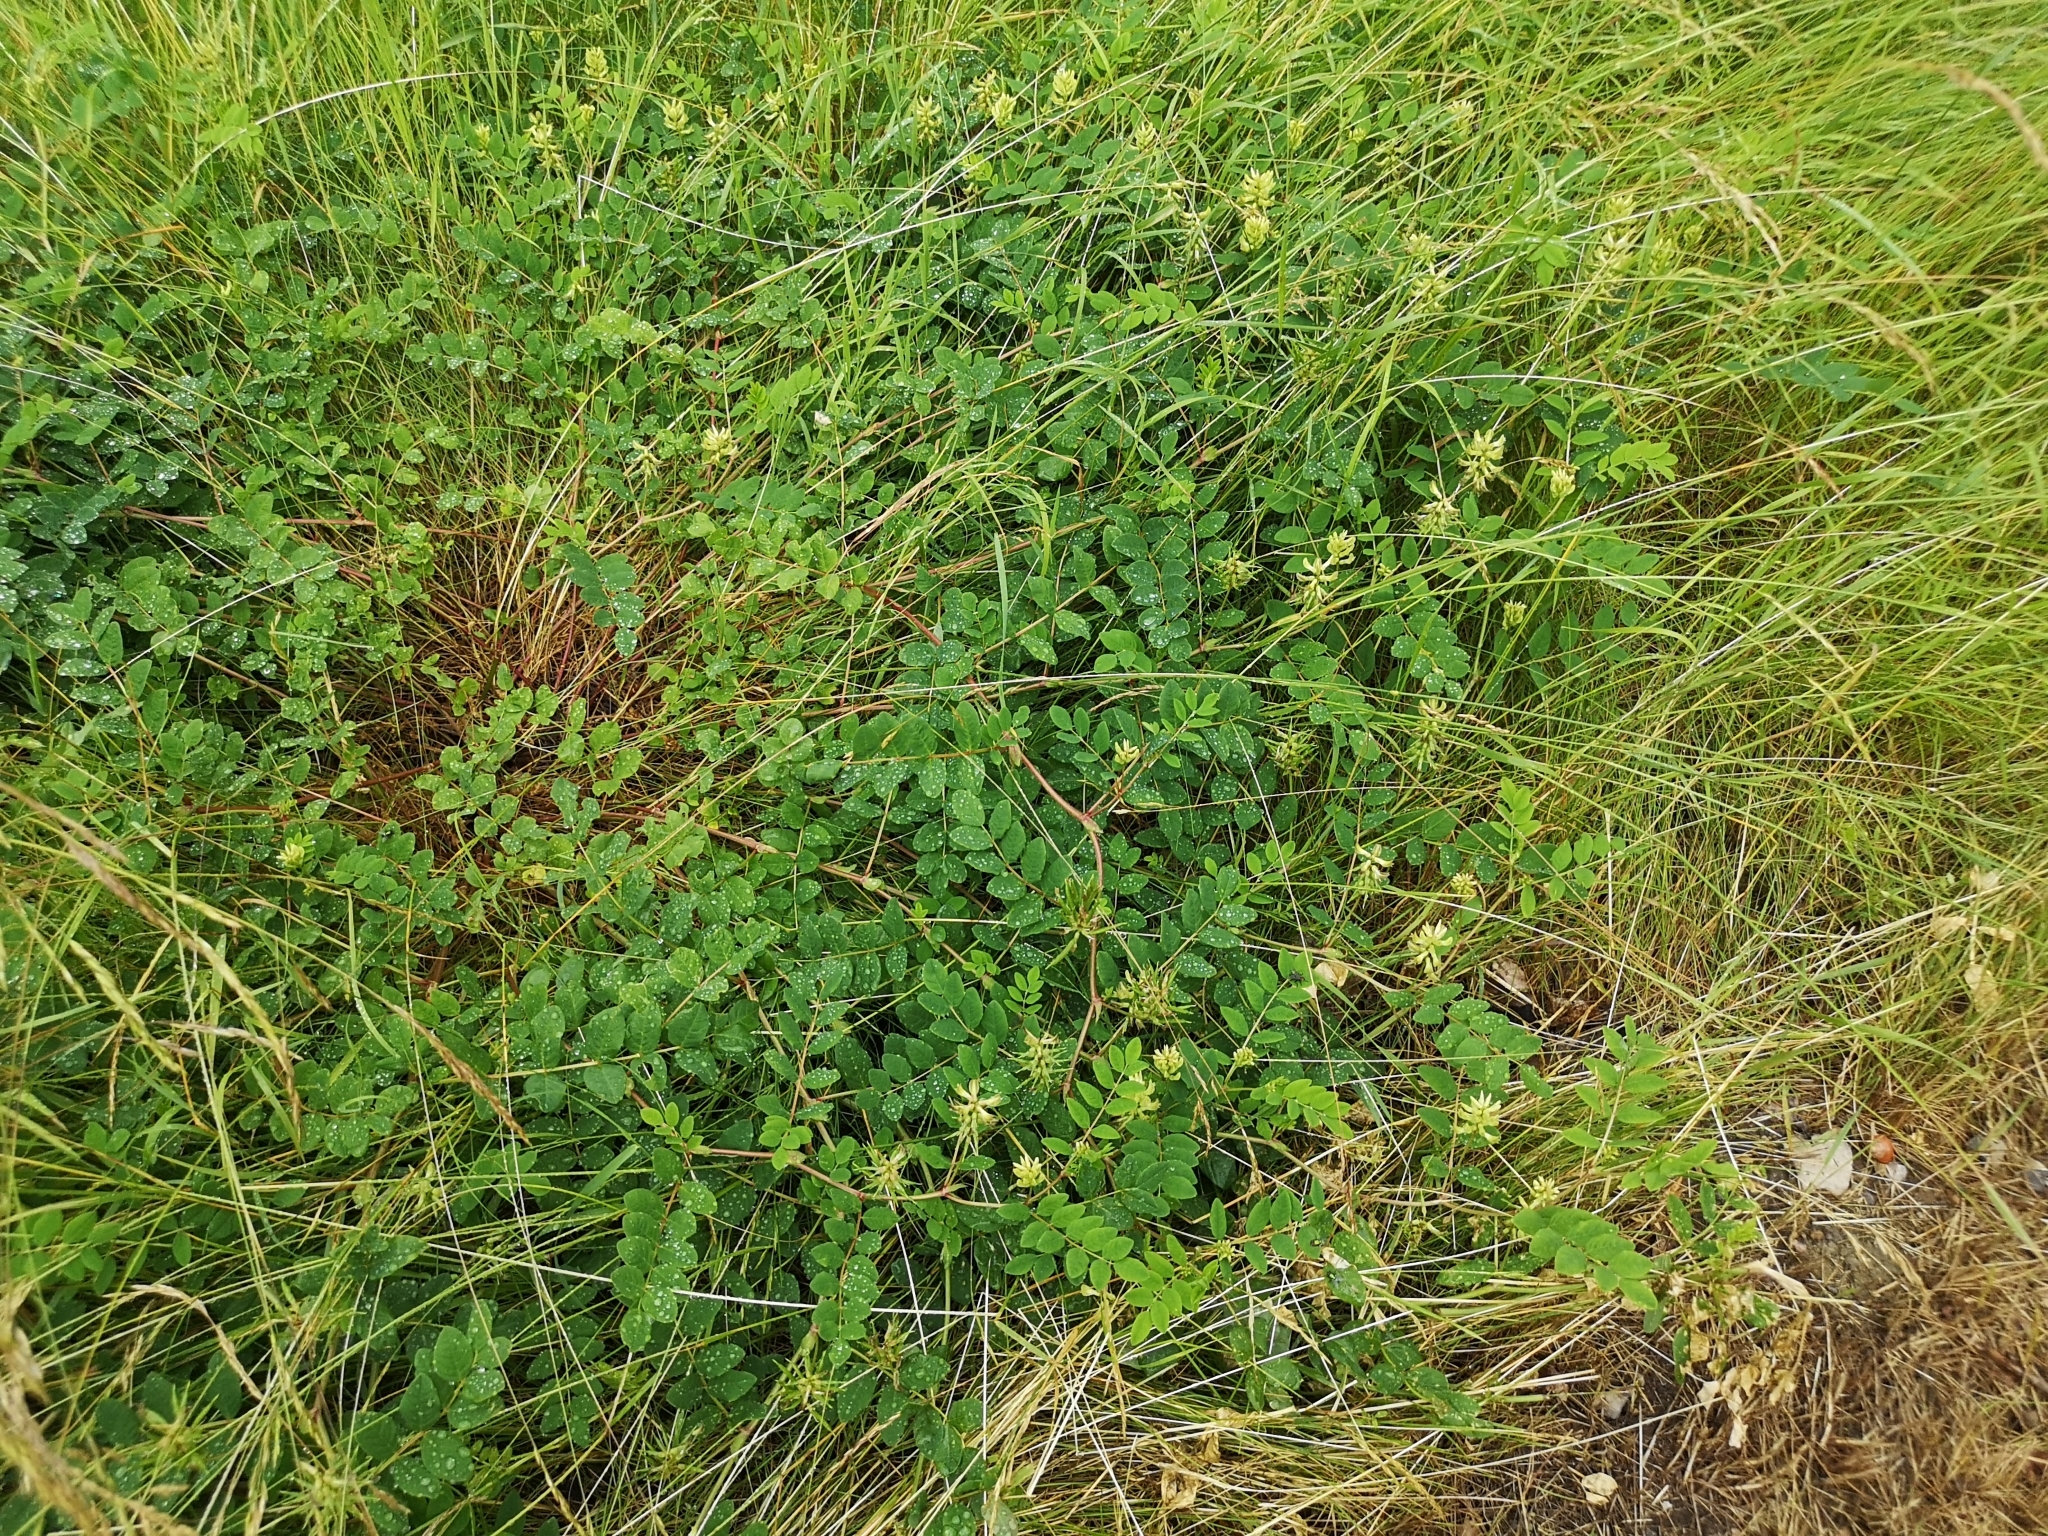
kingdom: Plantae
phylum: Tracheophyta
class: Magnoliopsida
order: Fabales
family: Fabaceae
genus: Astragalus
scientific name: Astragalus glycyphyllos
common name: Wild liquorice
